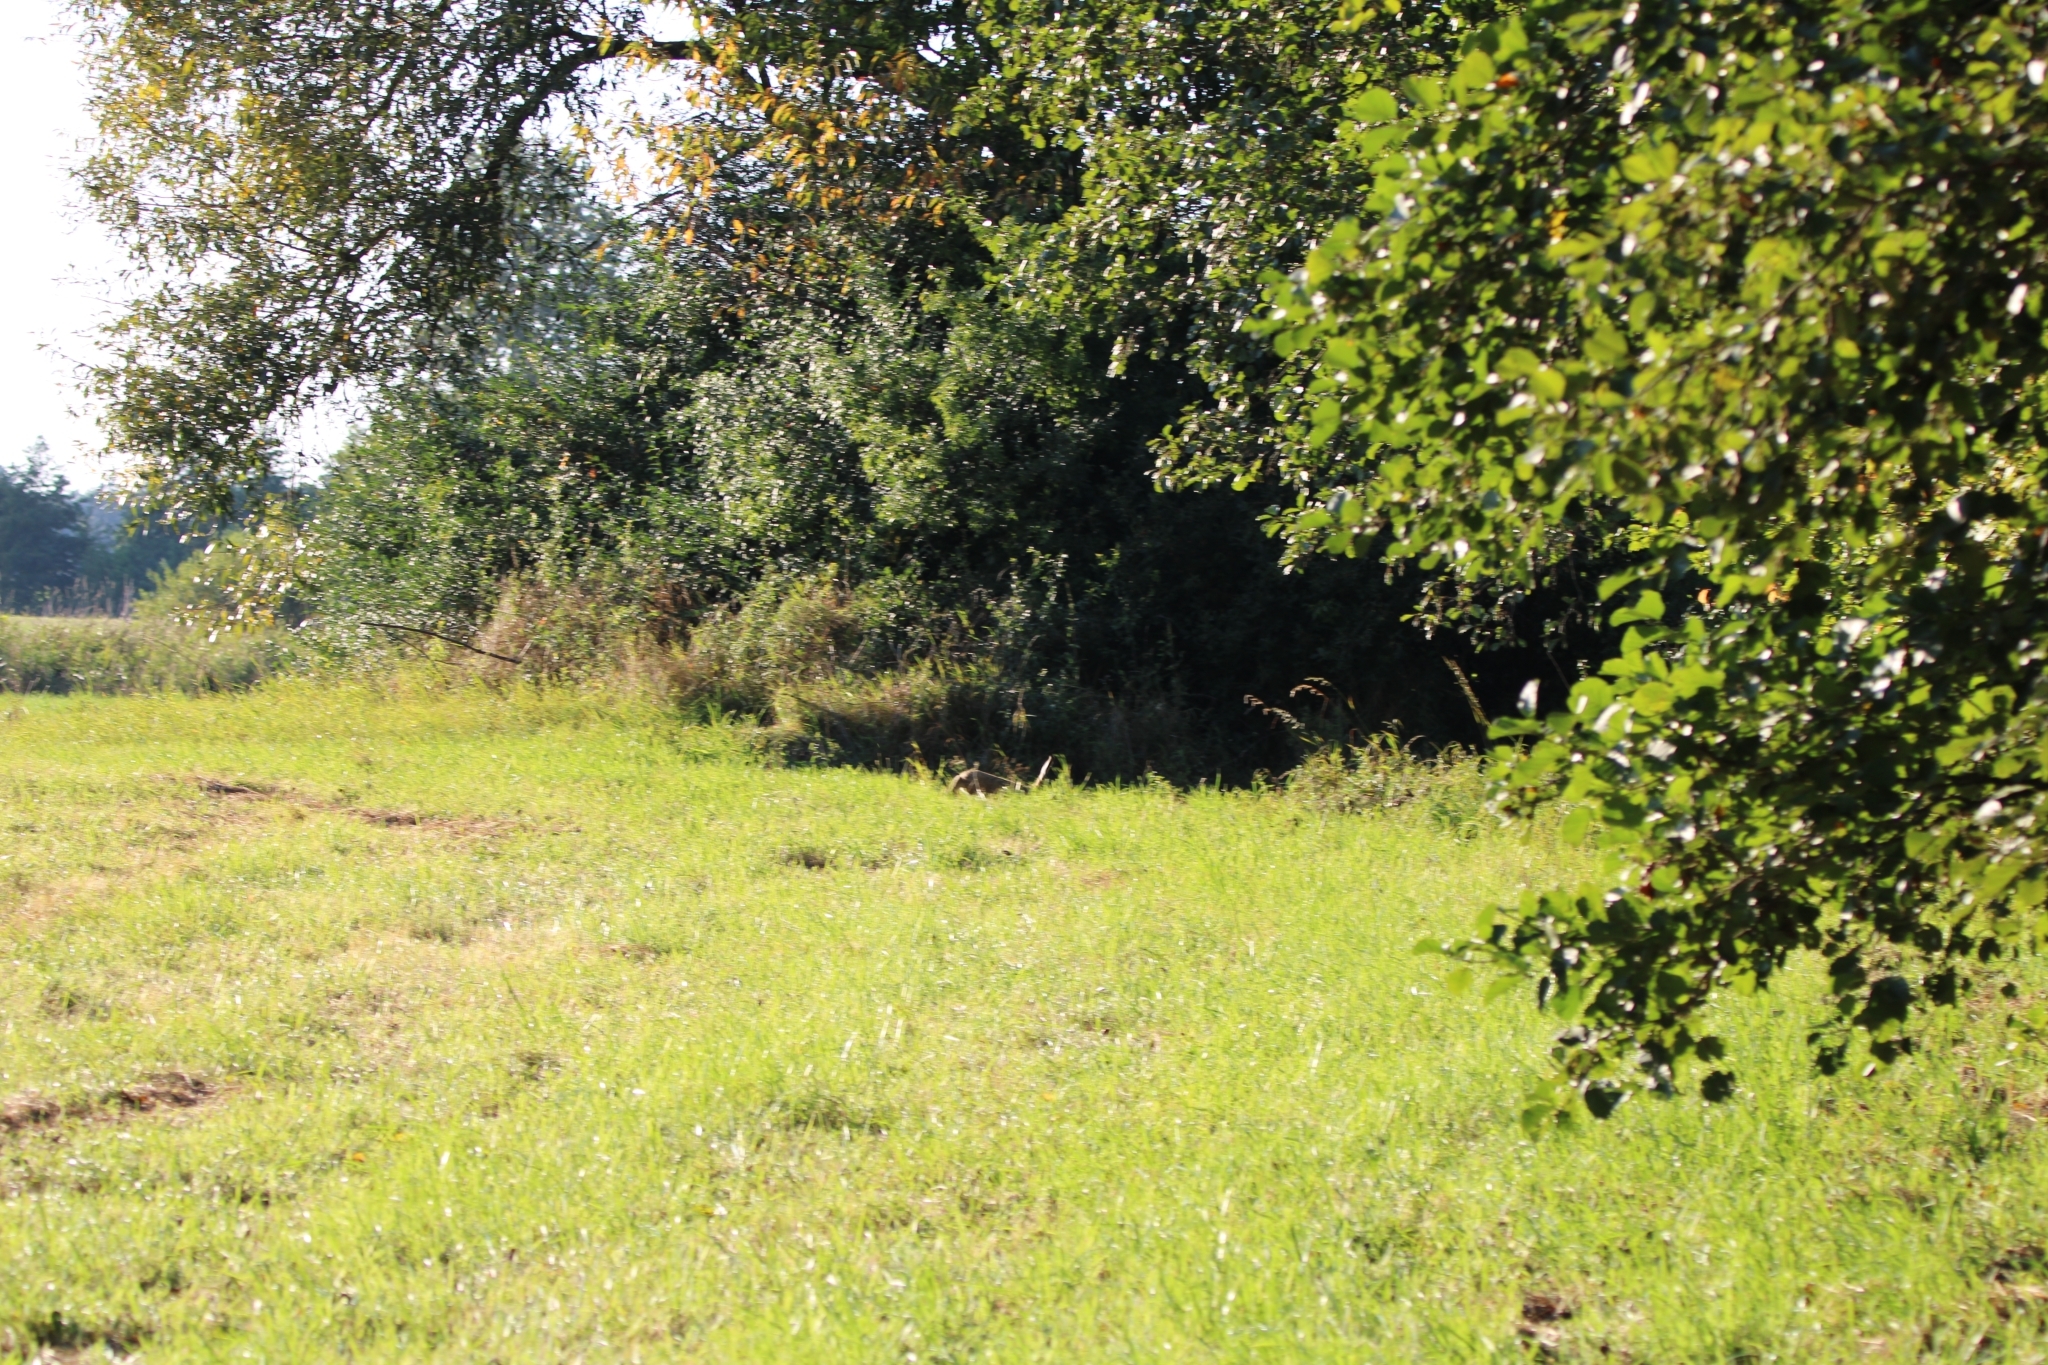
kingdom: Animalia
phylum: Chordata
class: Mammalia
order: Lagomorpha
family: Leporidae
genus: Lepus
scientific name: Lepus europaeus
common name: European hare
